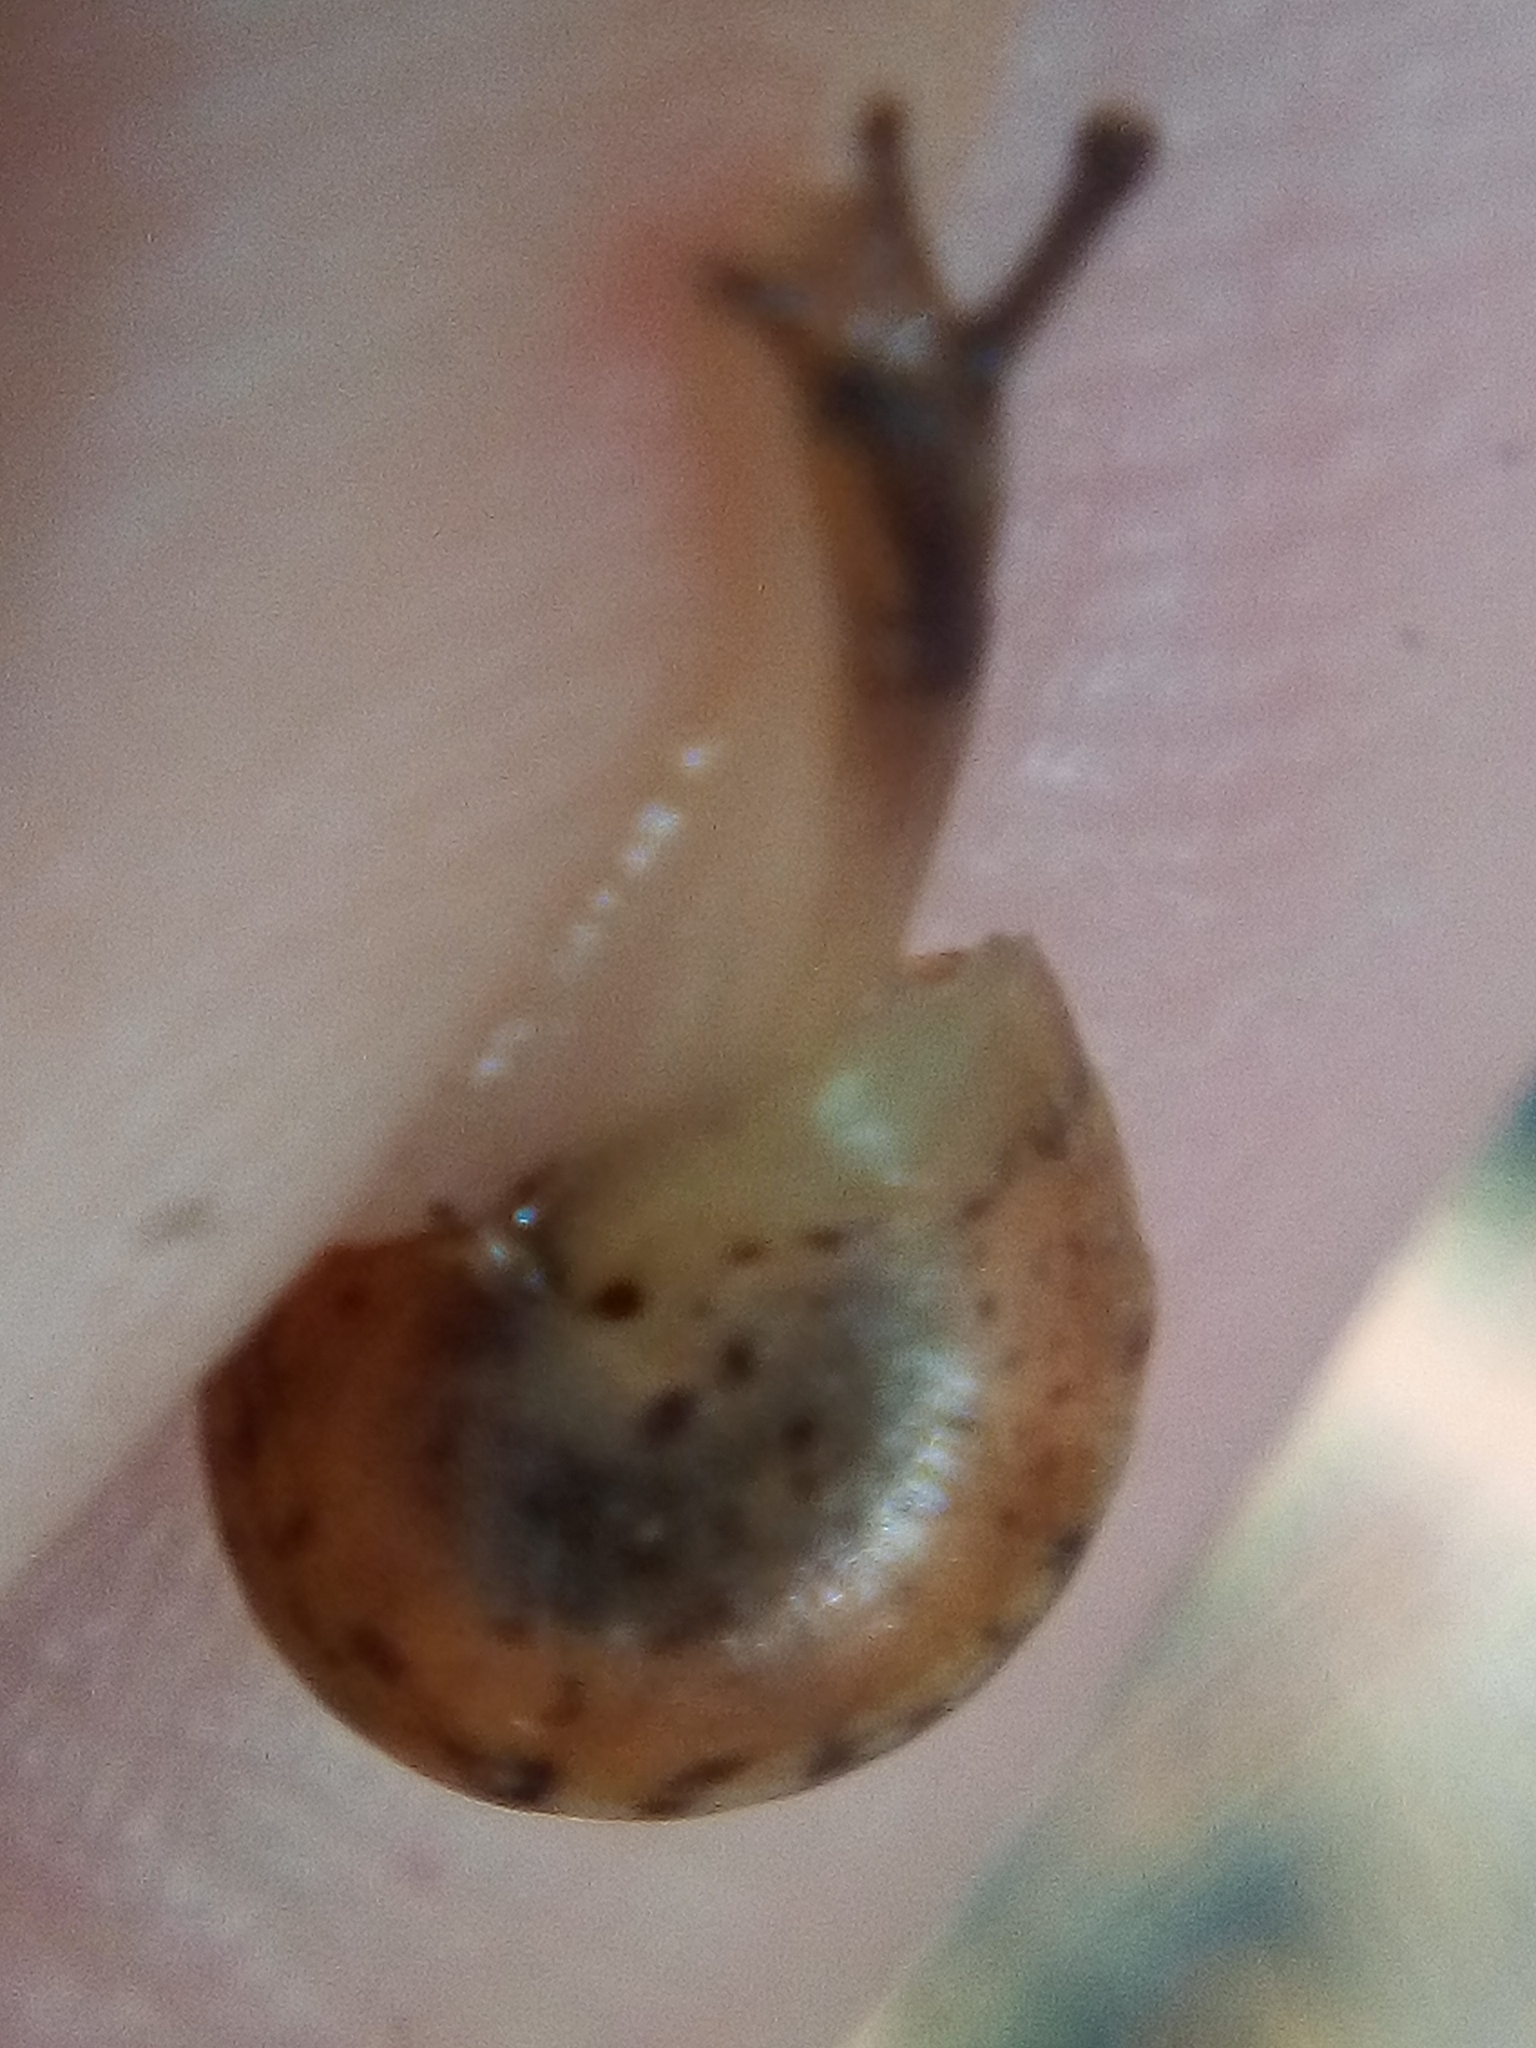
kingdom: Animalia
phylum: Mollusca
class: Gastropoda
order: Stylommatophora
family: Hygromiidae
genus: Hygromia
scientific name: Hygromia cinctella
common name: Girdled snail
